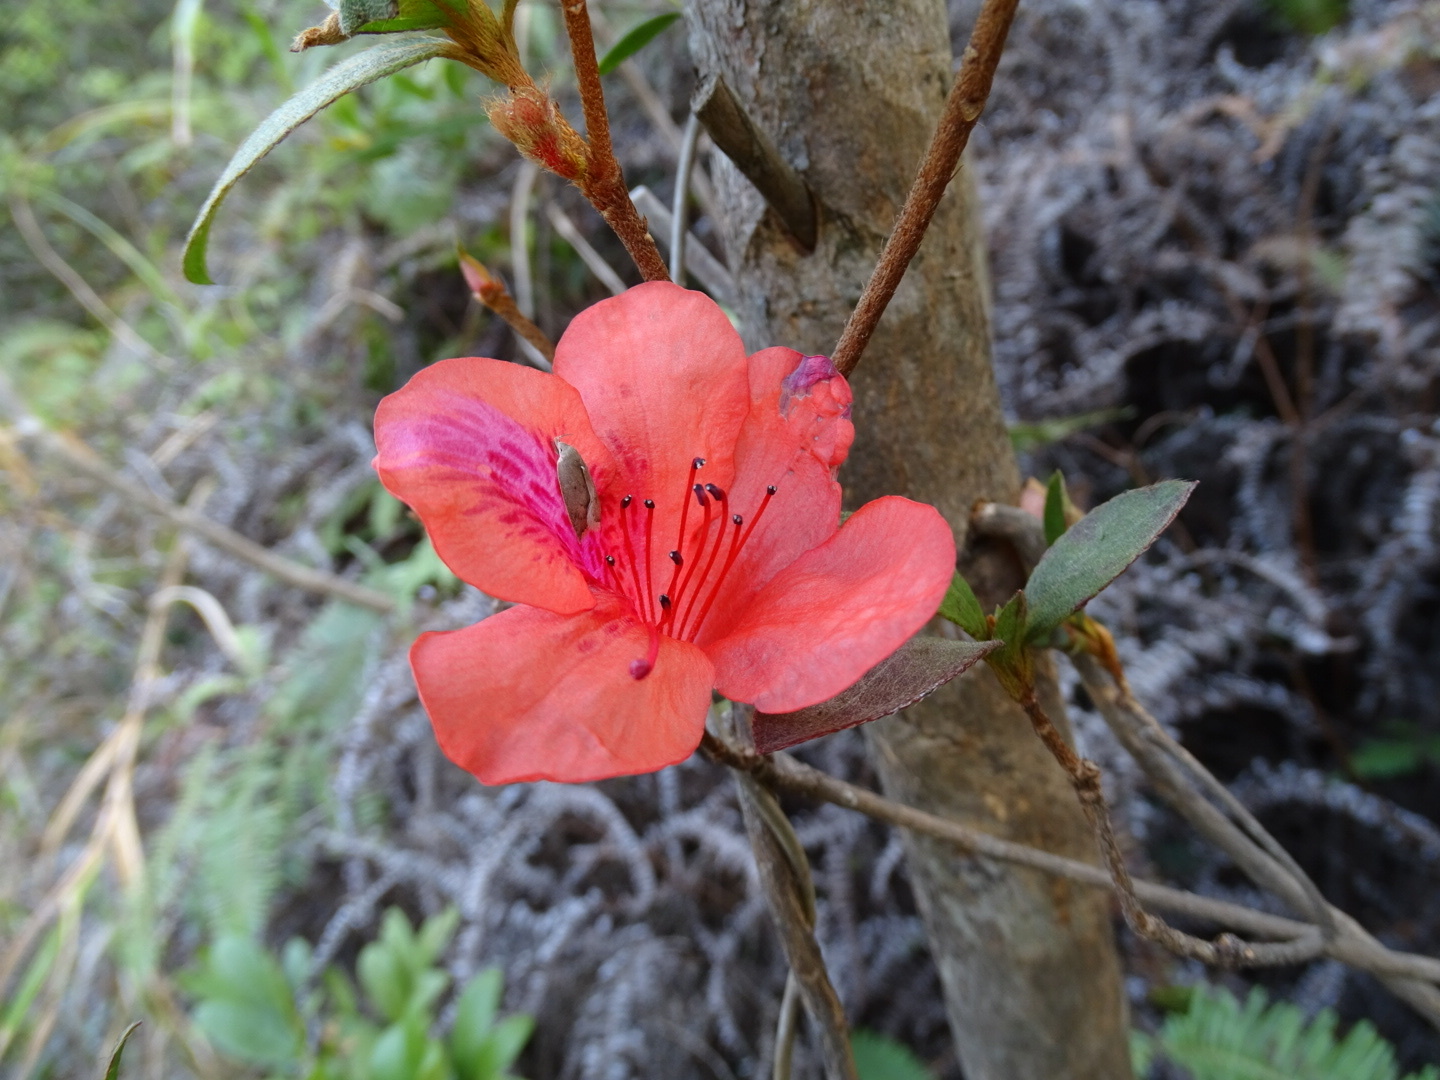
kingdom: Plantae
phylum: Tracheophyta
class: Magnoliopsida
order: Ericales
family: Ericaceae
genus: Rhododendron
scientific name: Rhododendron simsii
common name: Rhododendron
